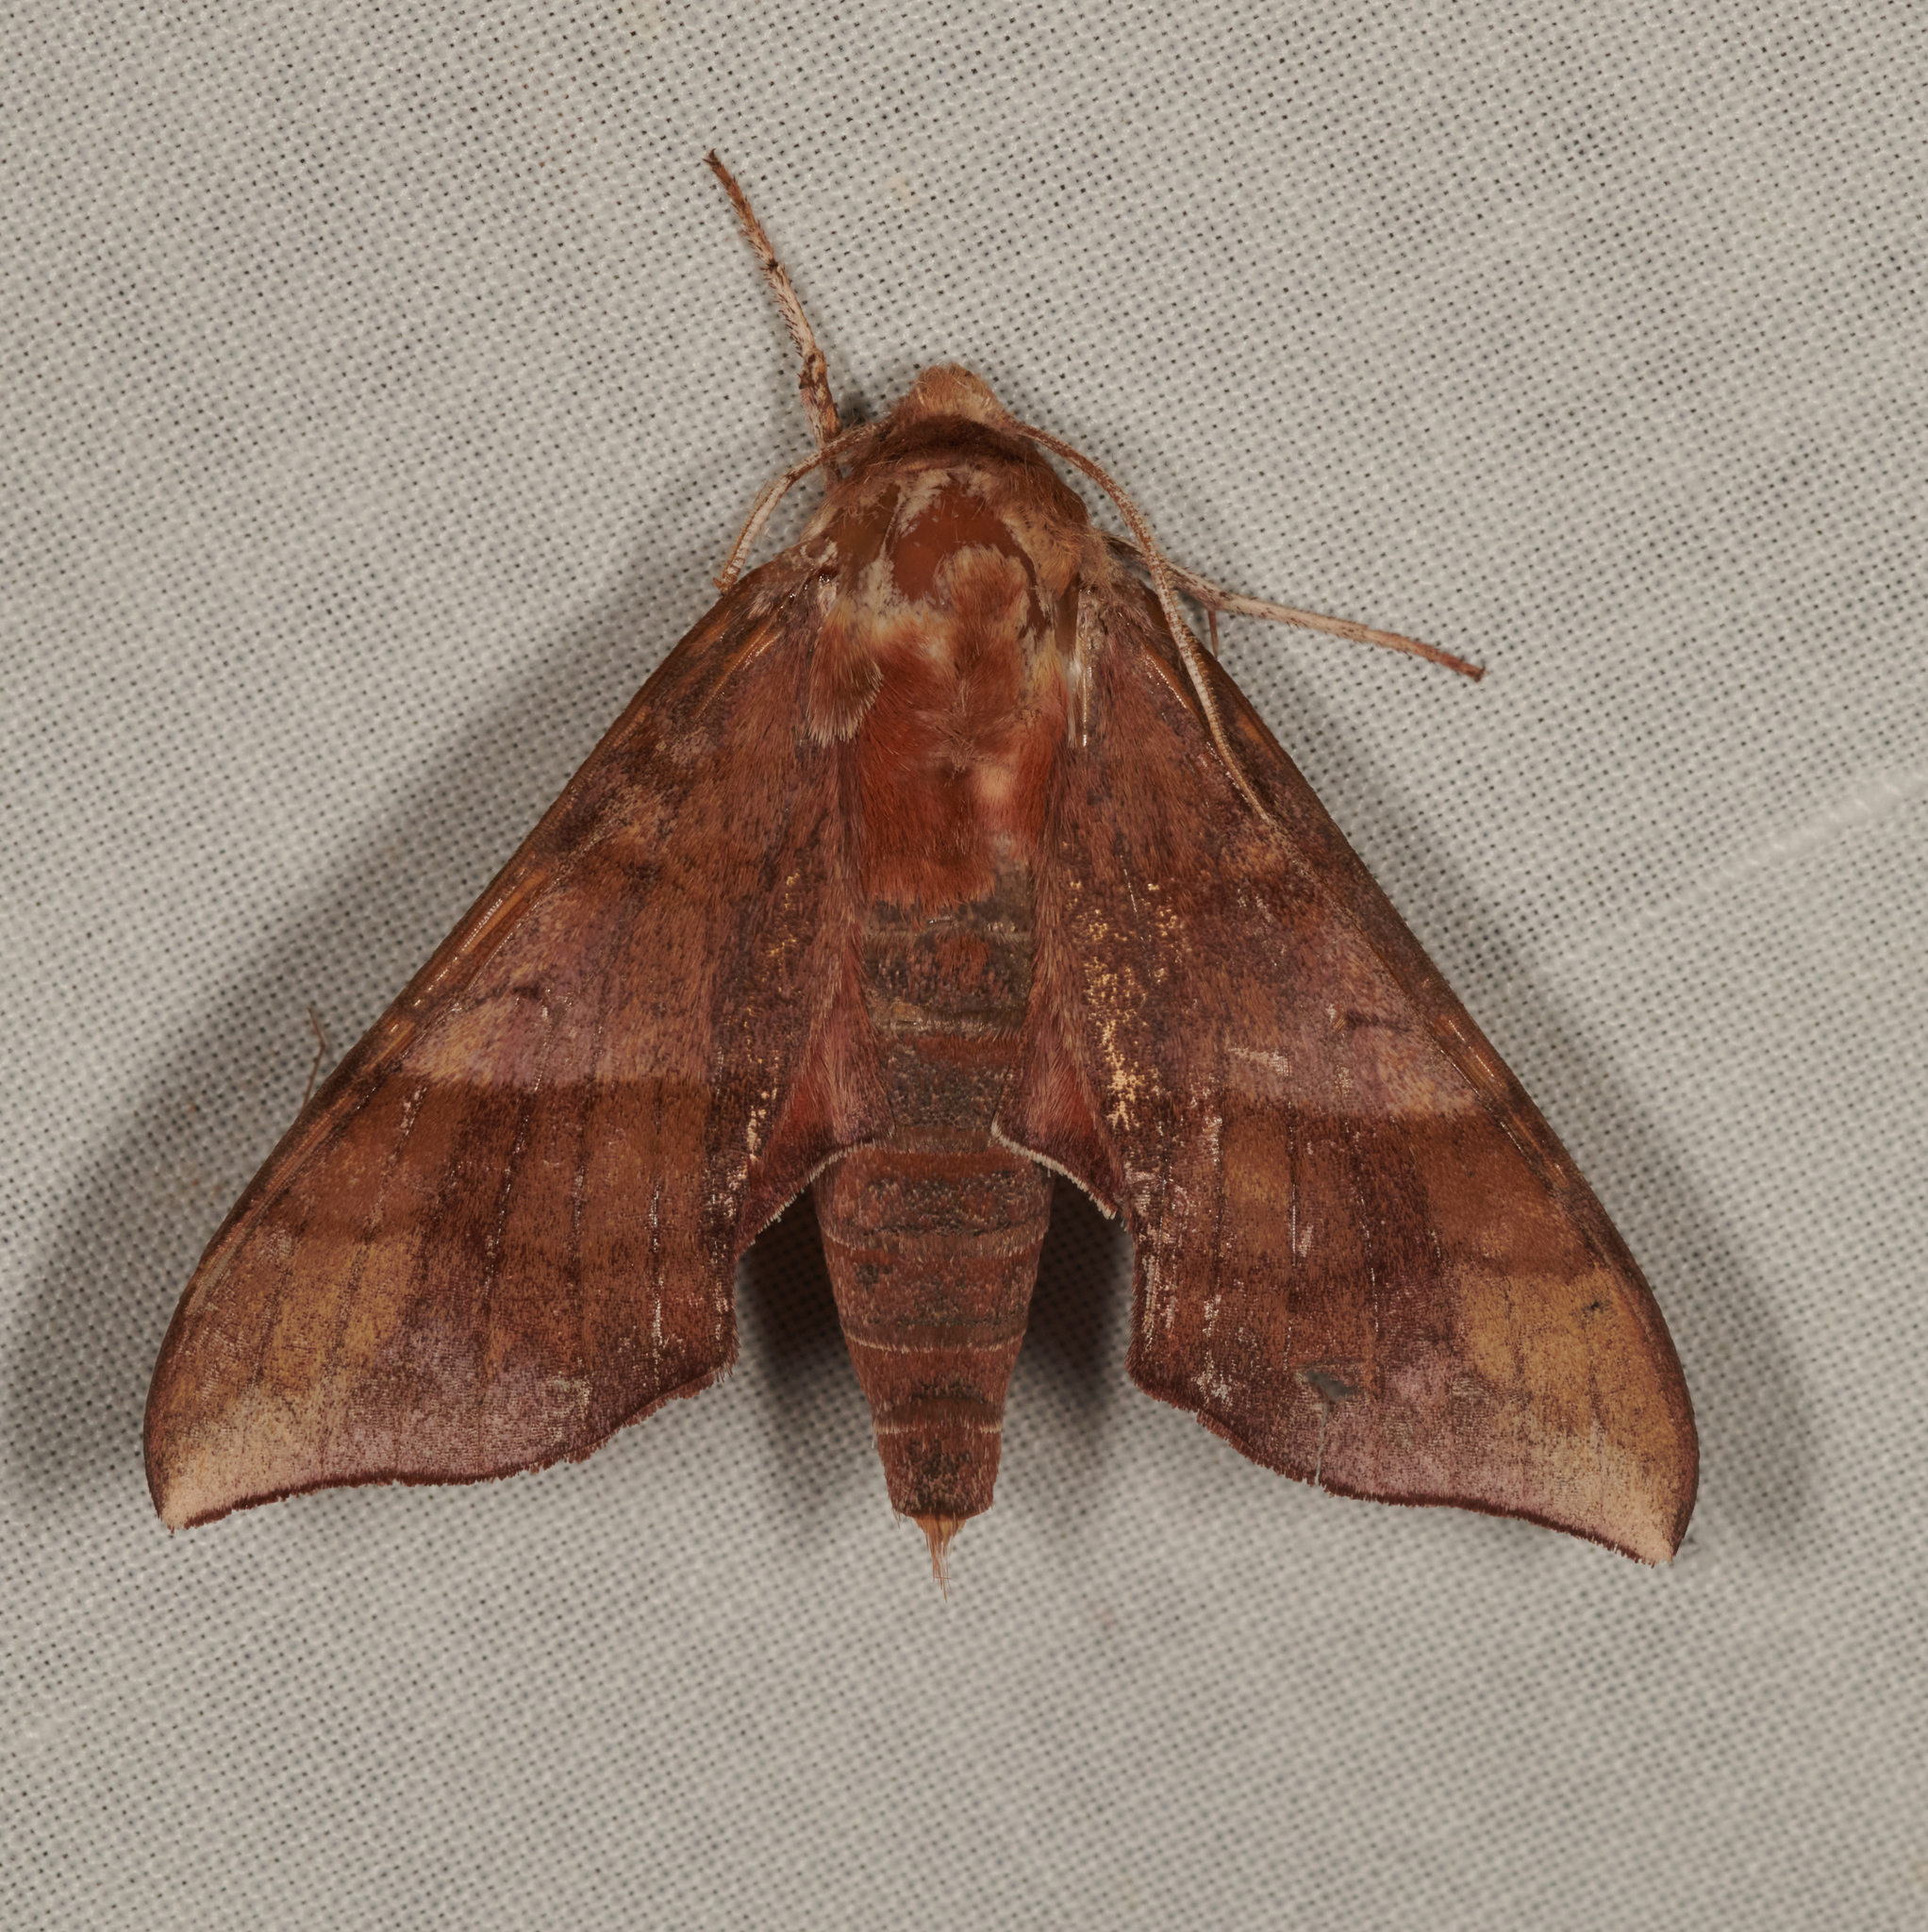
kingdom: Animalia
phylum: Arthropoda
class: Insecta
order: Lepidoptera
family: Sphingidae
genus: Darapsa
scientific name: Darapsa choerilus
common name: Azalea sphinx
